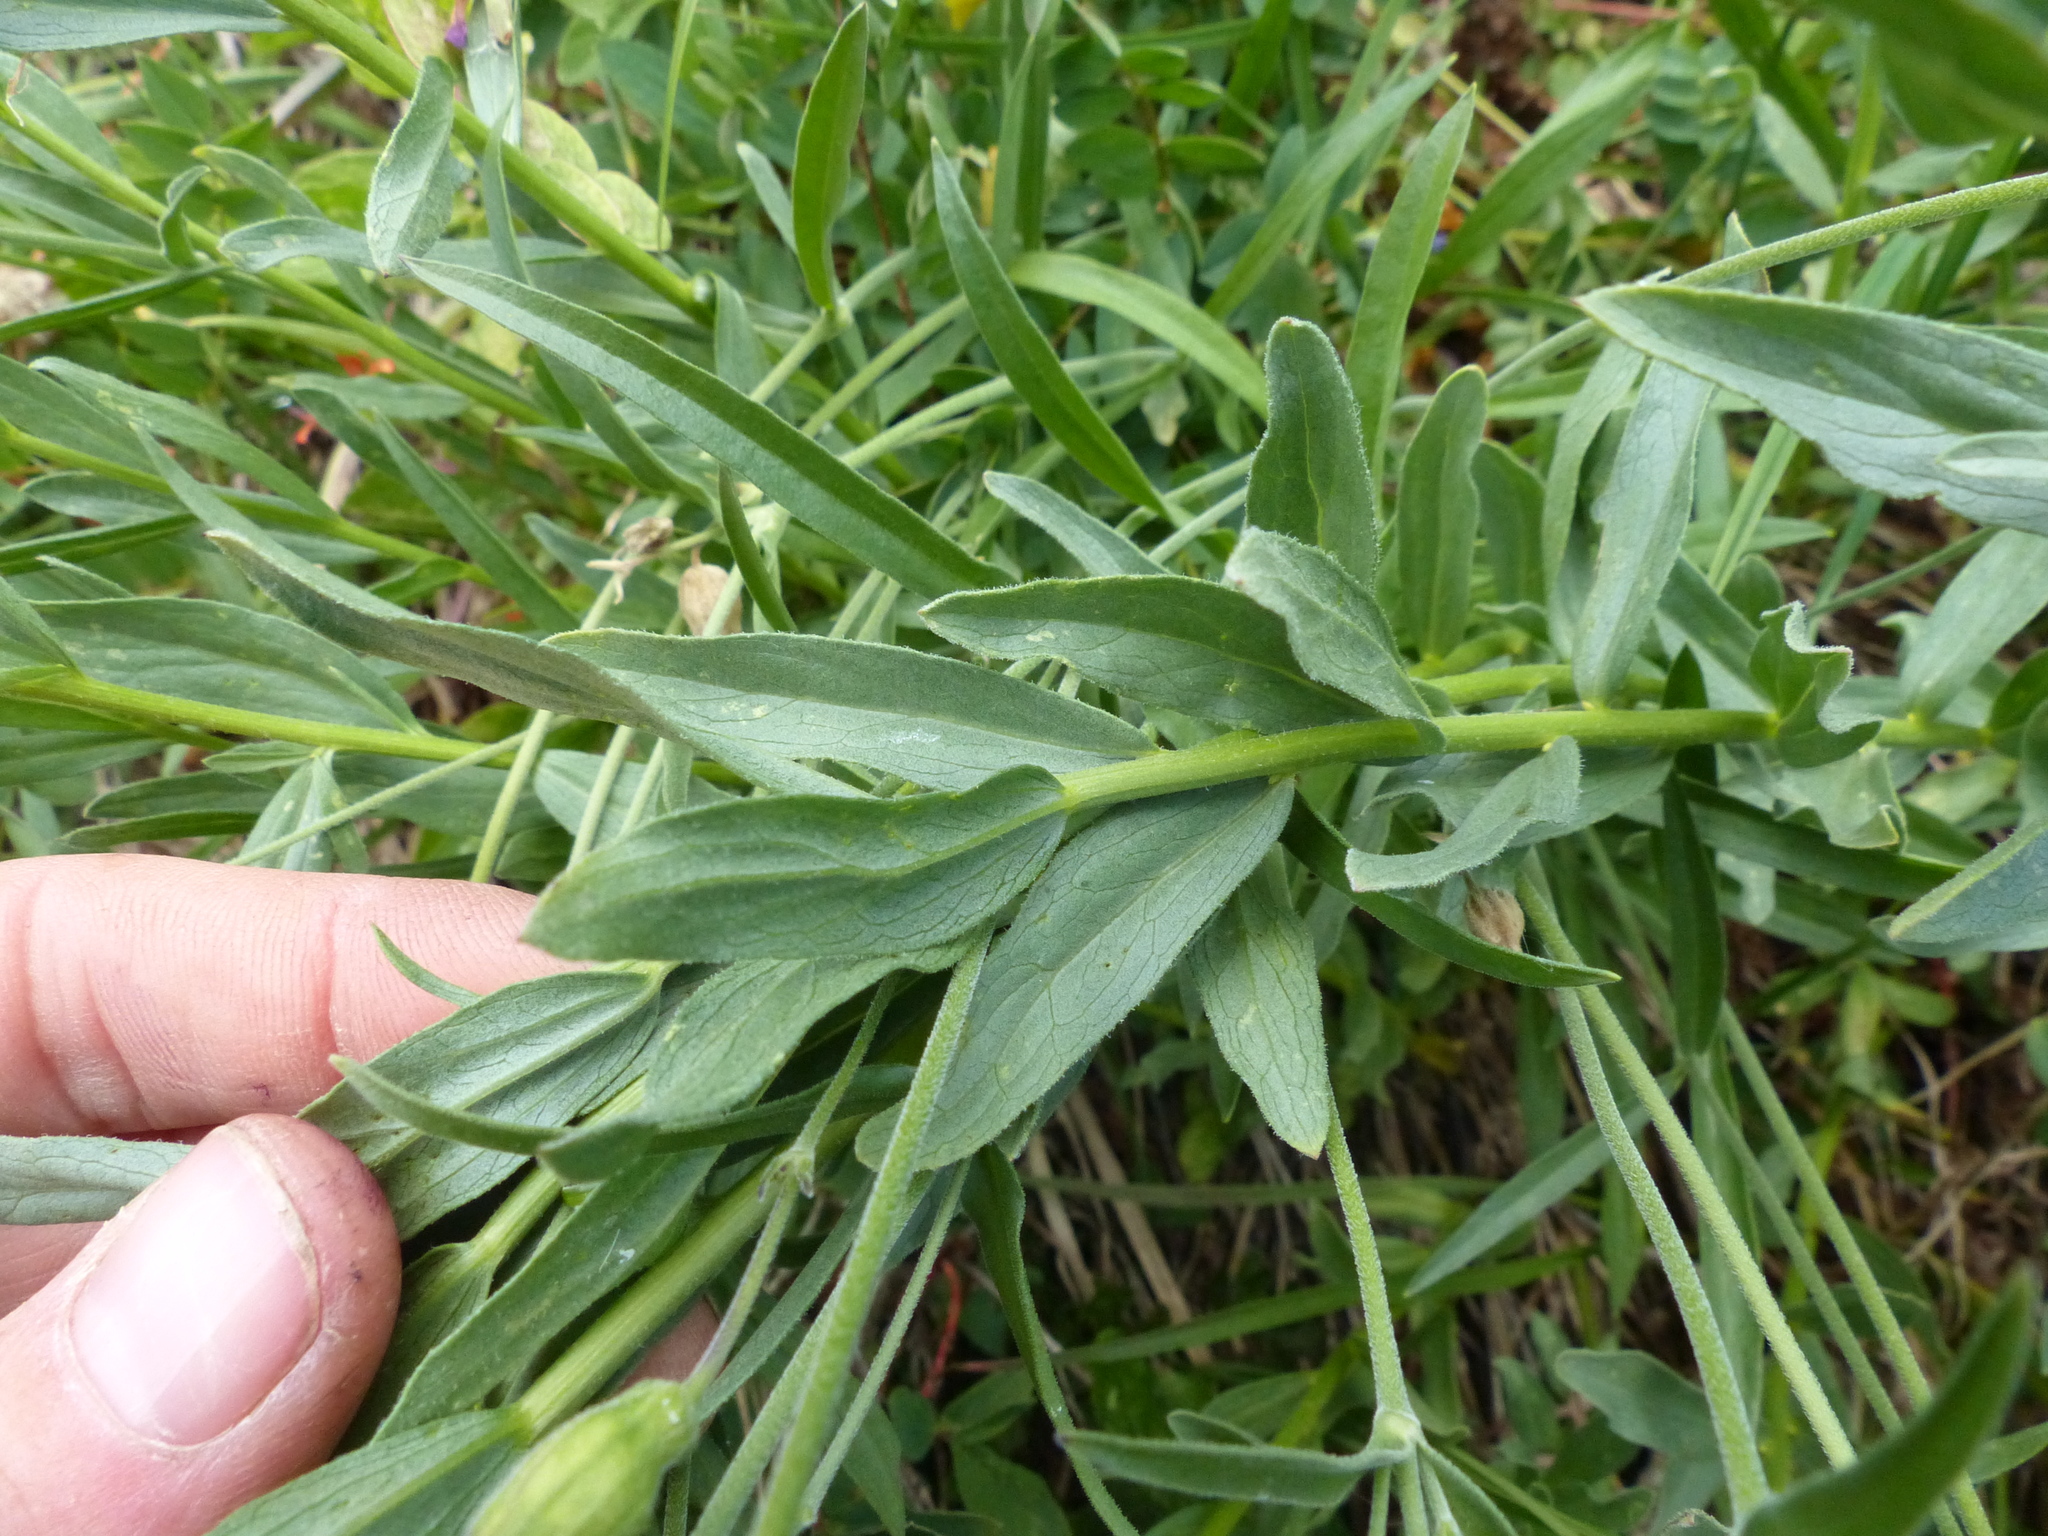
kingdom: Plantae
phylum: Tracheophyta
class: Magnoliopsida
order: Asterales
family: Asteraceae
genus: Eucephalus
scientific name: Eucephalus paucicapitatus
